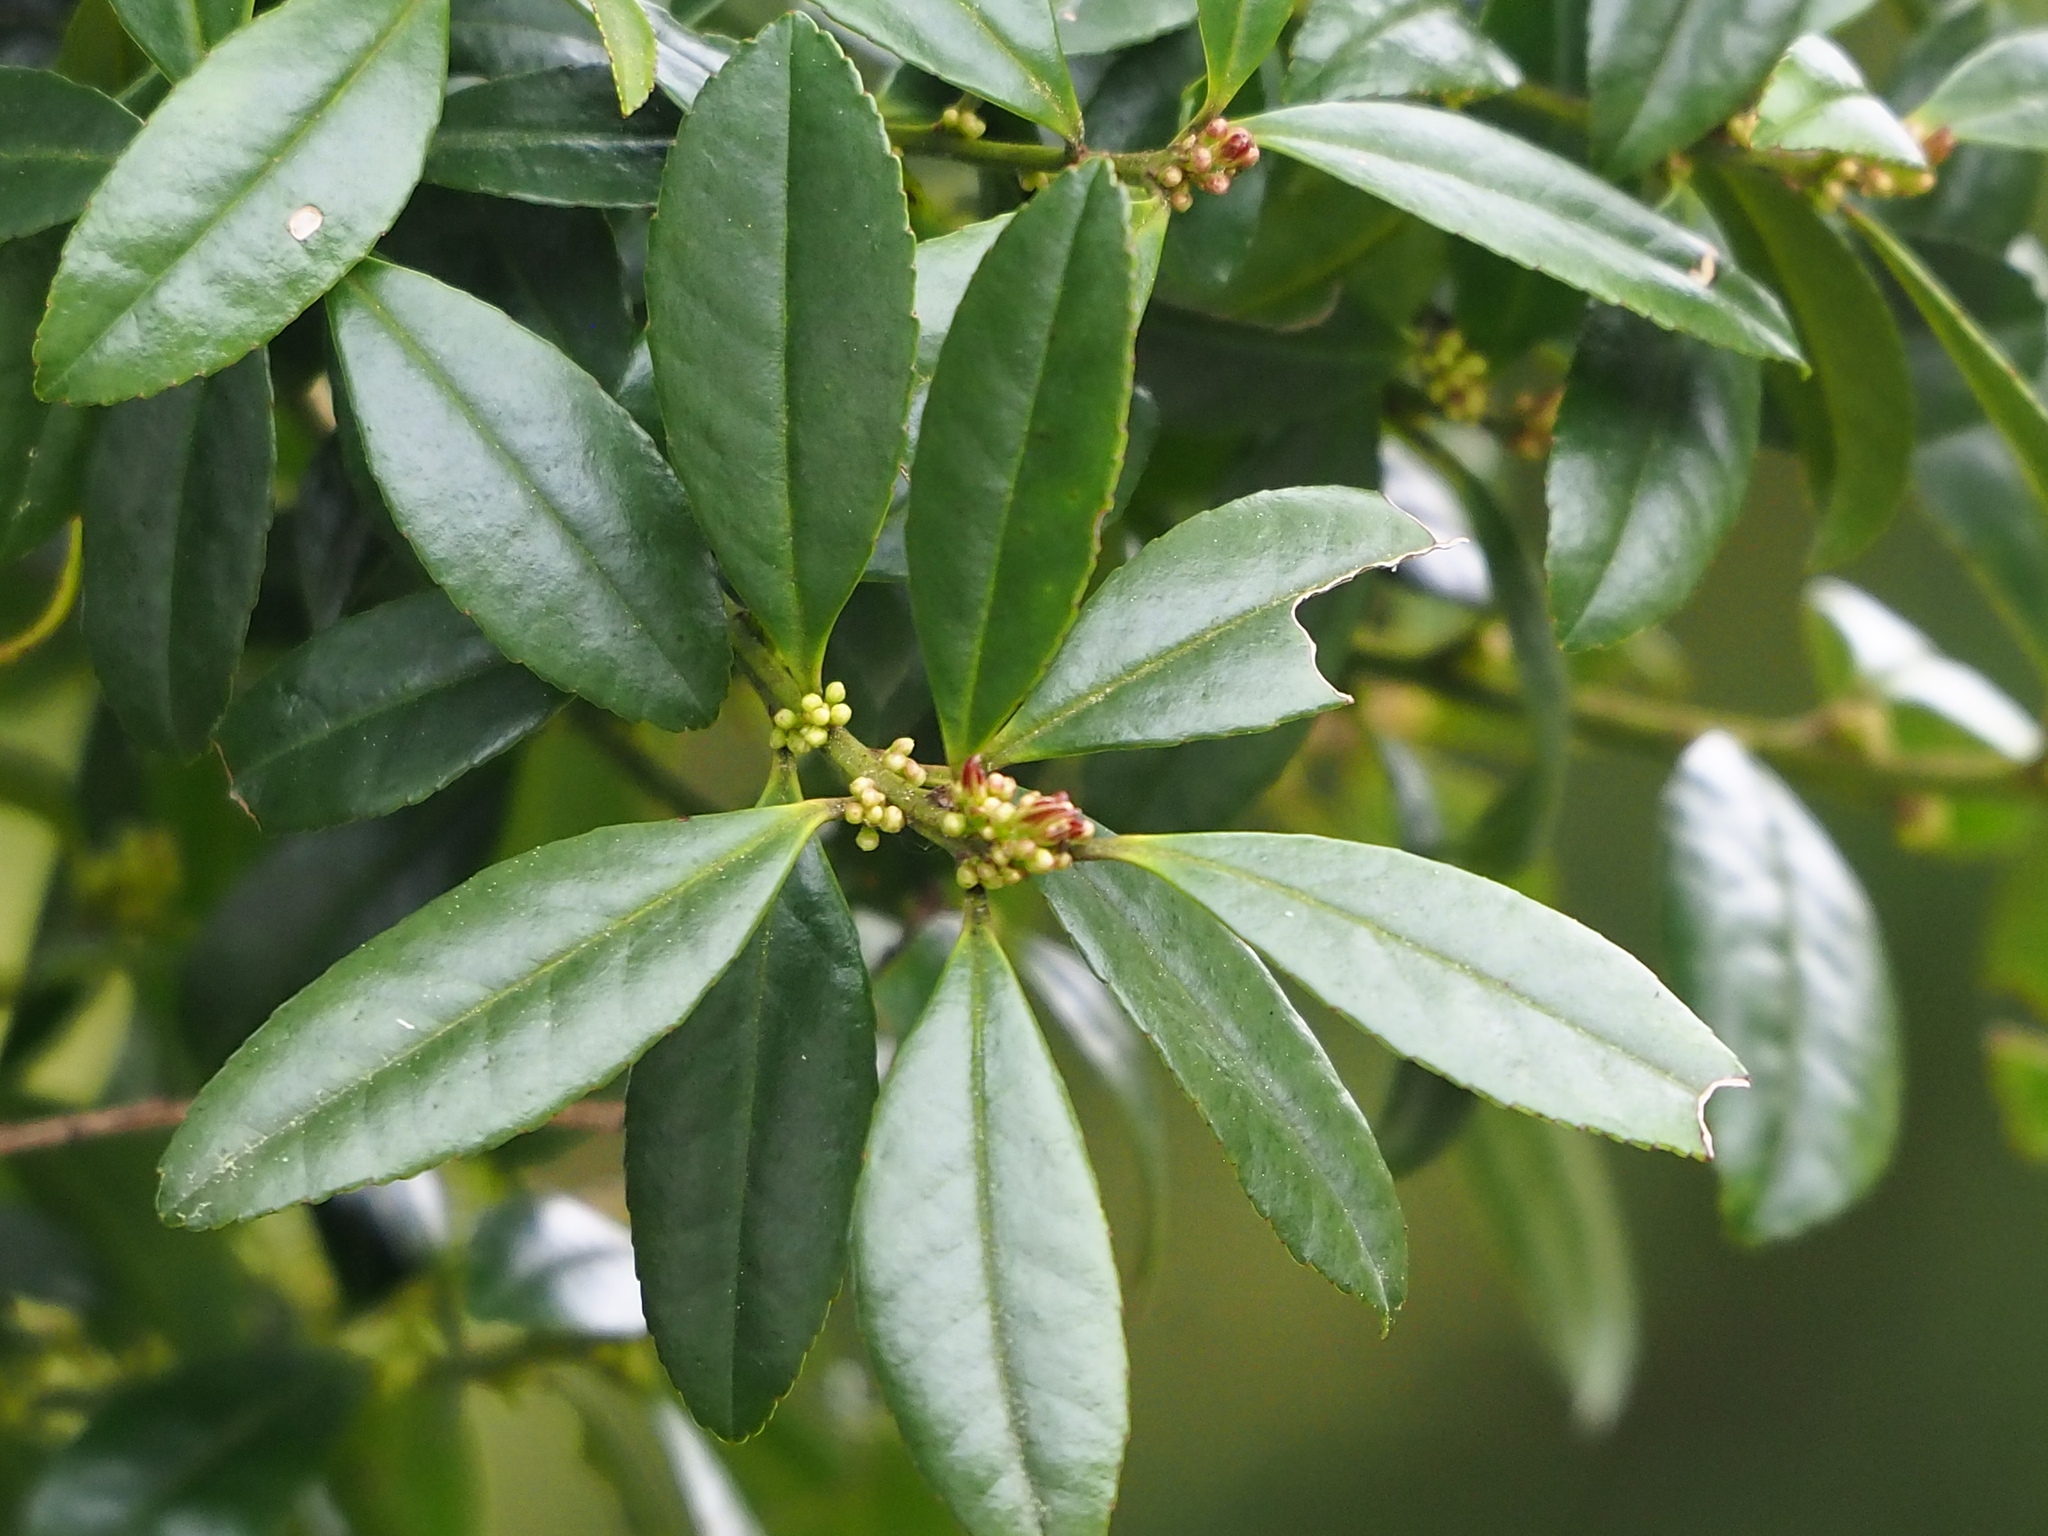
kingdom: Plantae
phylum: Tracheophyta
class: Magnoliopsida
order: Aquifoliales
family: Aquifoliaceae
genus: Ilex
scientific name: Ilex crenata
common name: Japanese holly
